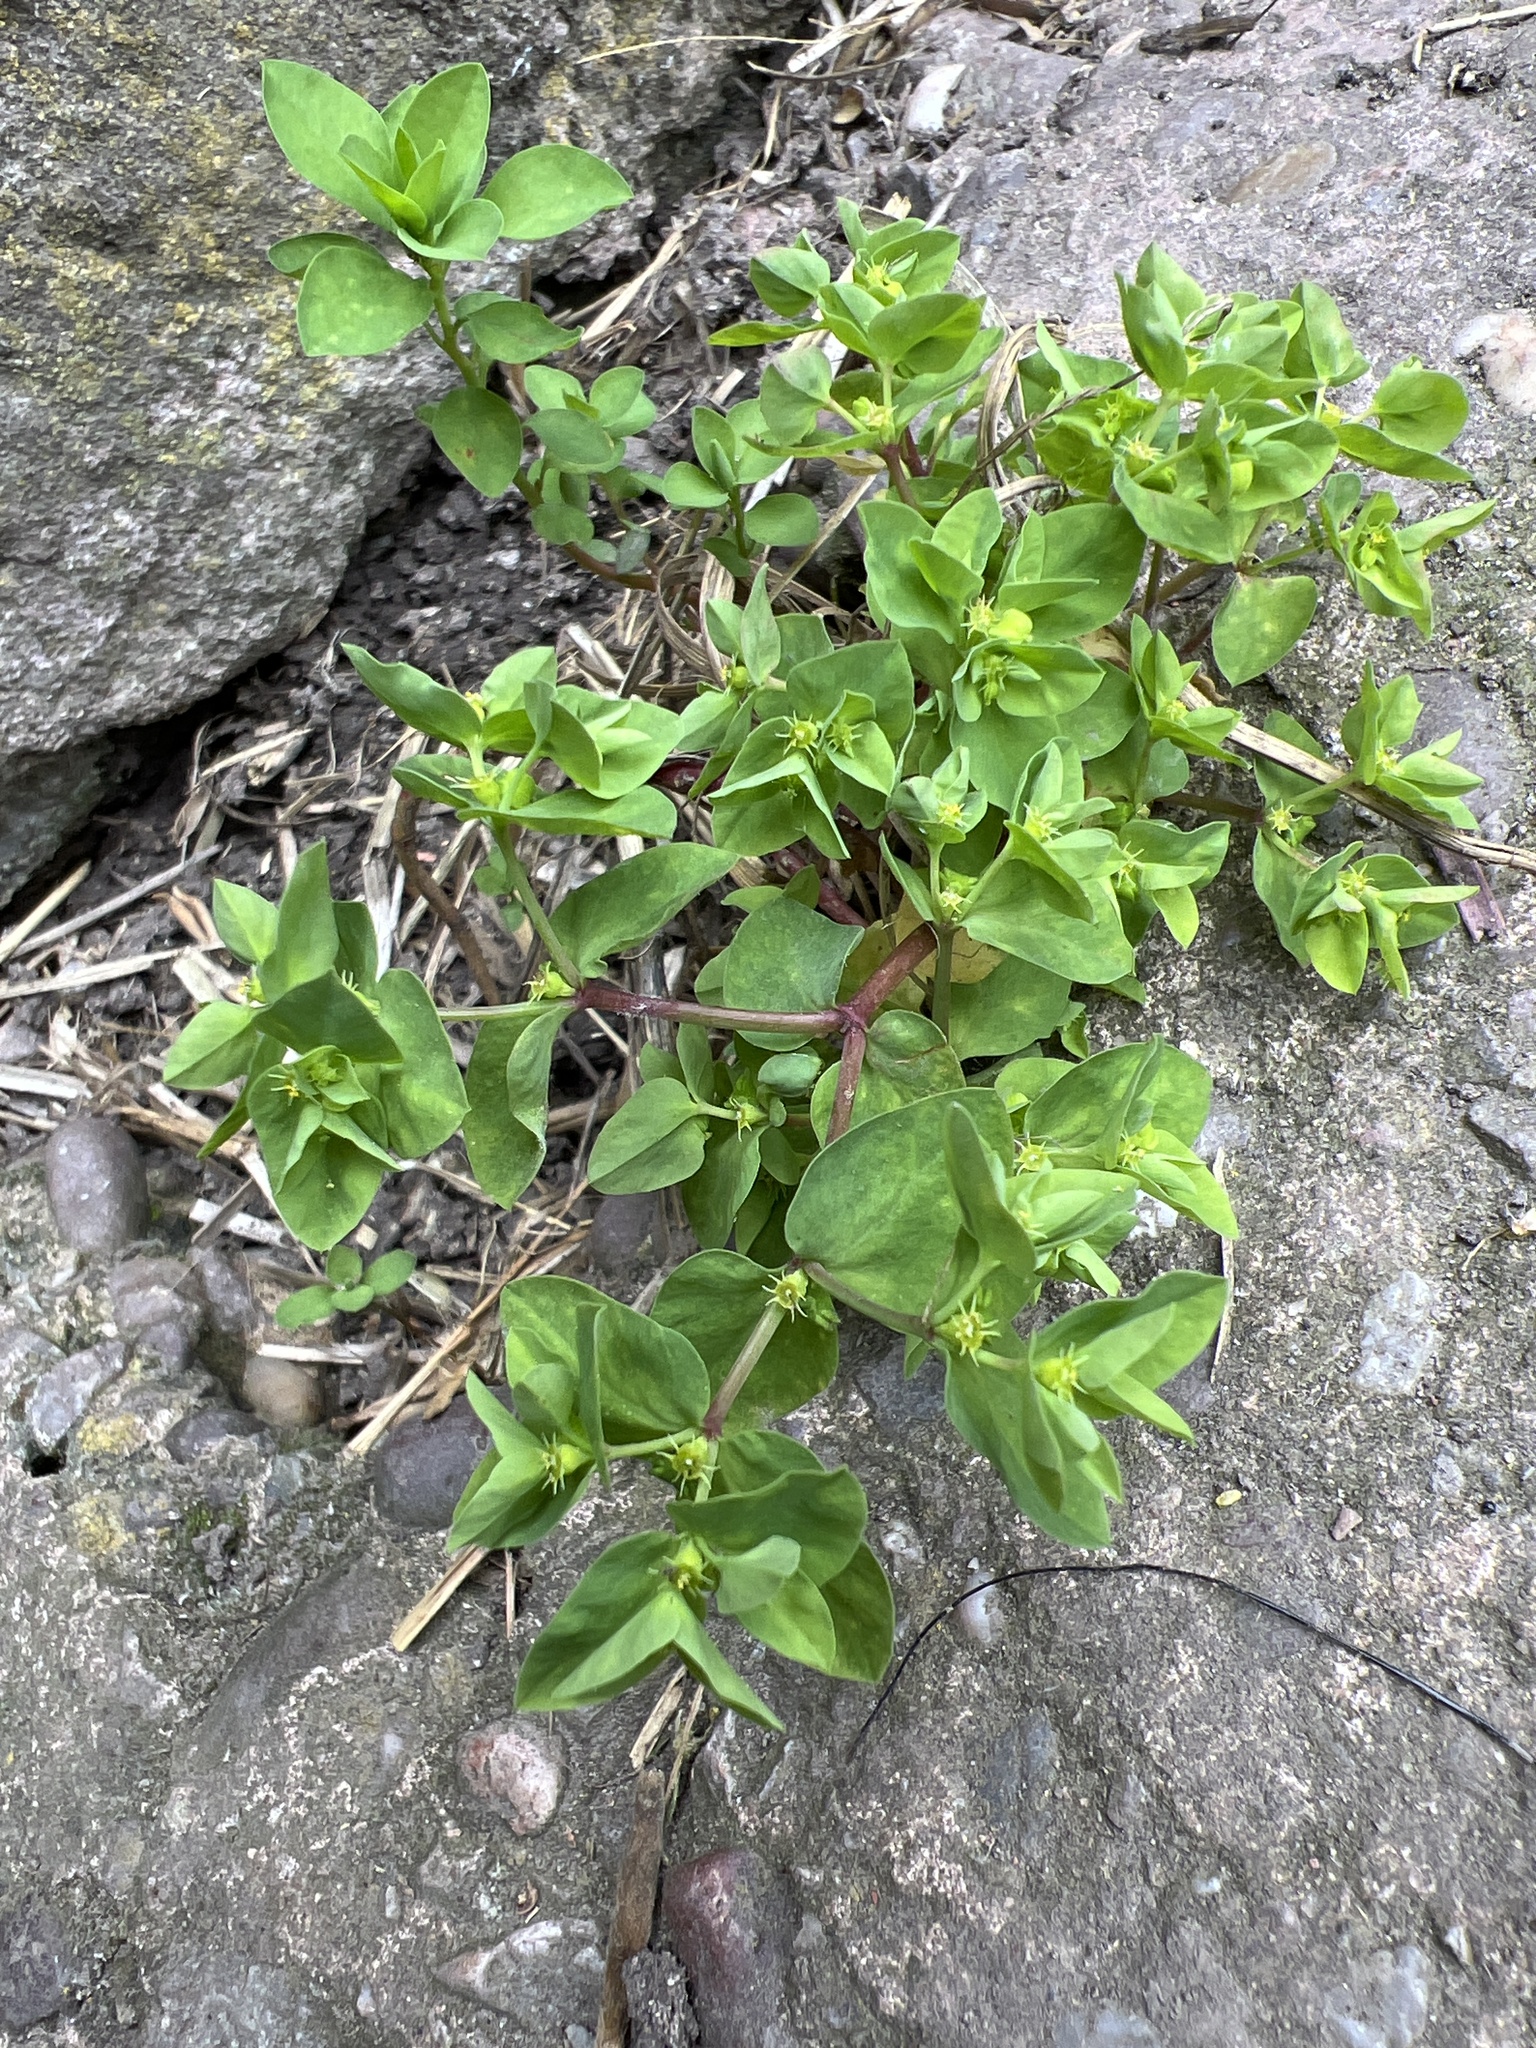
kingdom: Plantae
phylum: Tracheophyta
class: Magnoliopsida
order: Malpighiales
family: Euphorbiaceae
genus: Euphorbia
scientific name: Euphorbia peplus
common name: Petty spurge
